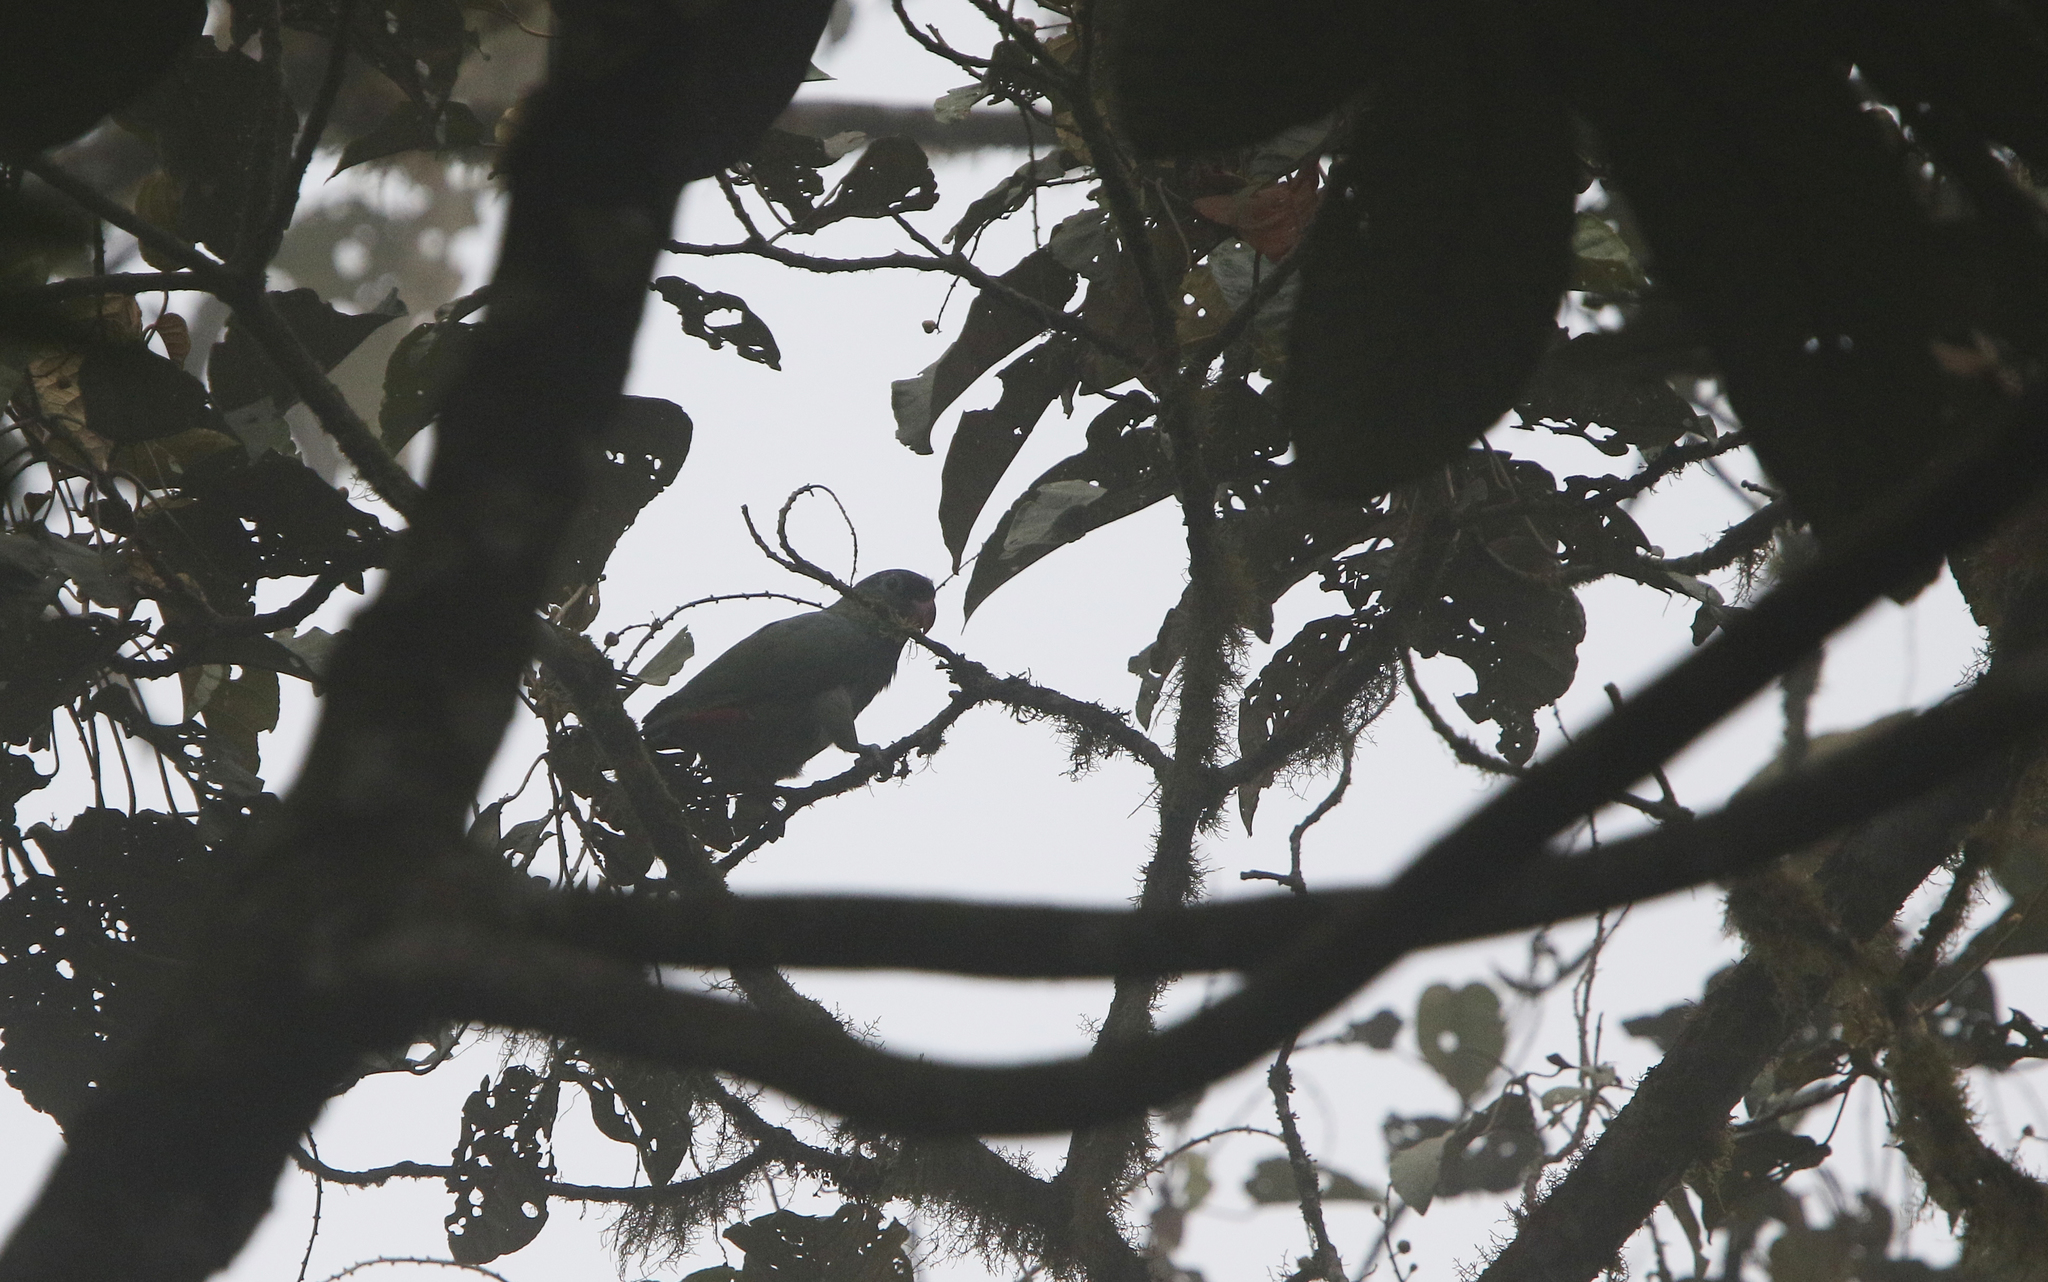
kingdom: Animalia
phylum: Chordata
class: Aves
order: Psittaciformes
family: Psittacidae
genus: Pionus
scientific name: Pionus sordidus
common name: Red-billed parrot
